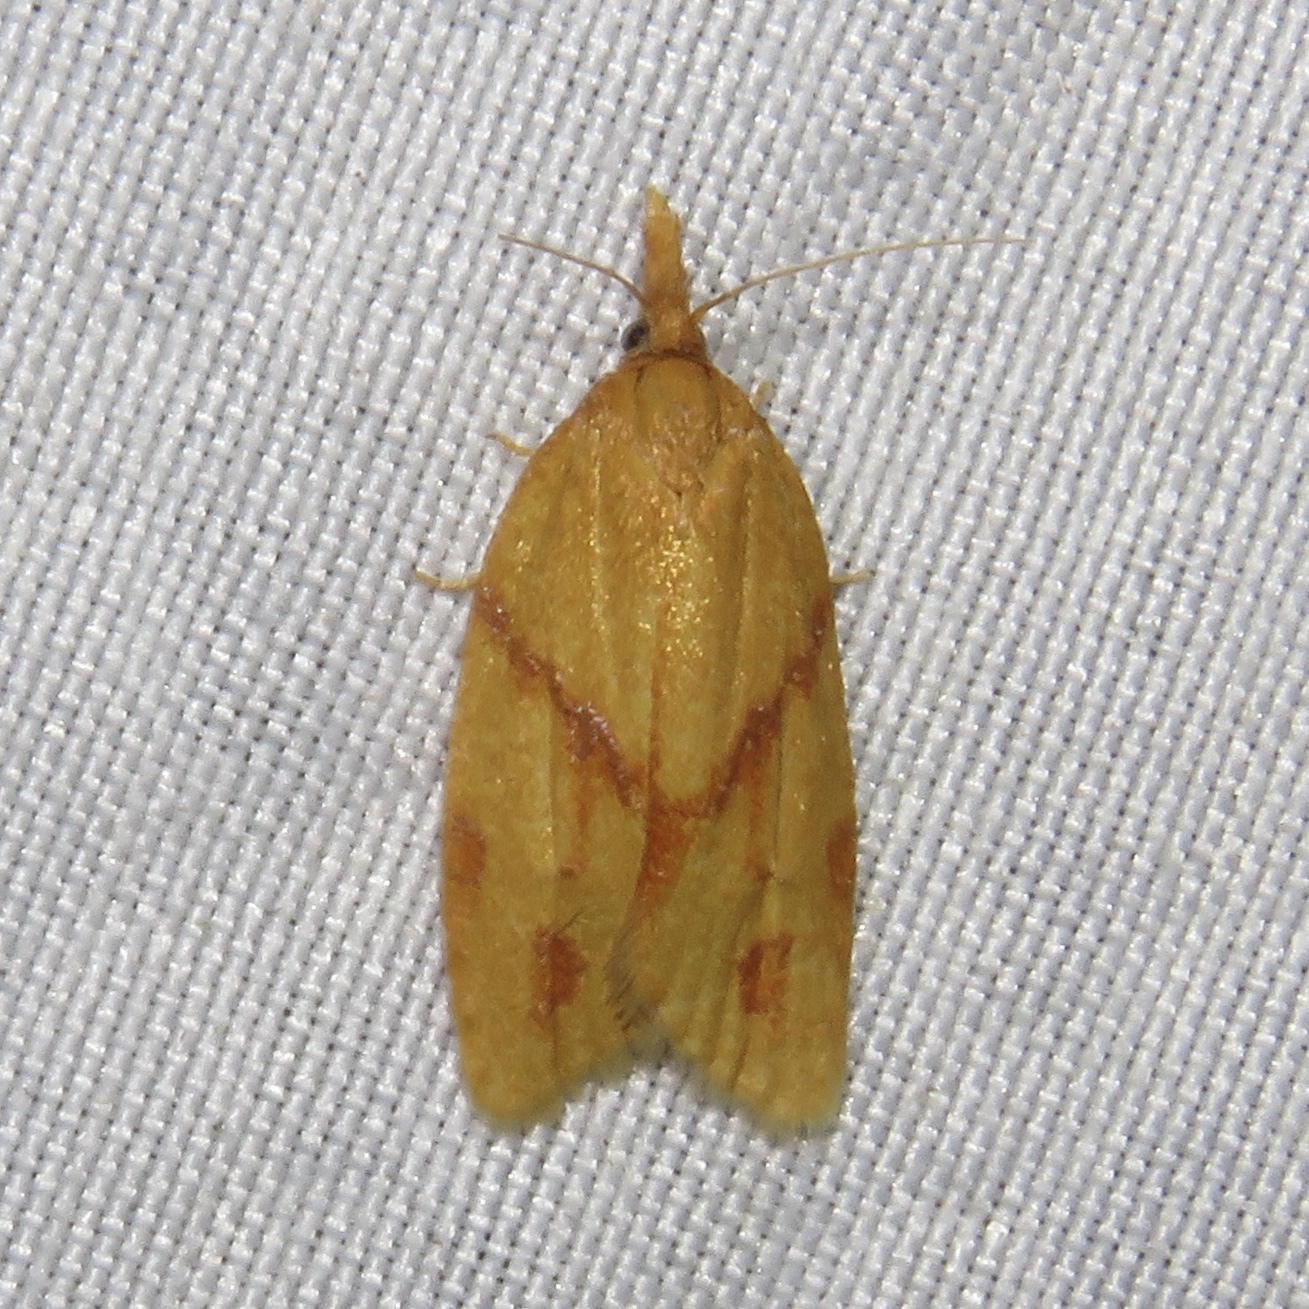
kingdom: Animalia
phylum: Arthropoda
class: Insecta
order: Lepidoptera
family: Tortricidae
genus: Sparganothis
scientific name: Sparganothis unifasciana
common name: One-lined sparganothis moth
